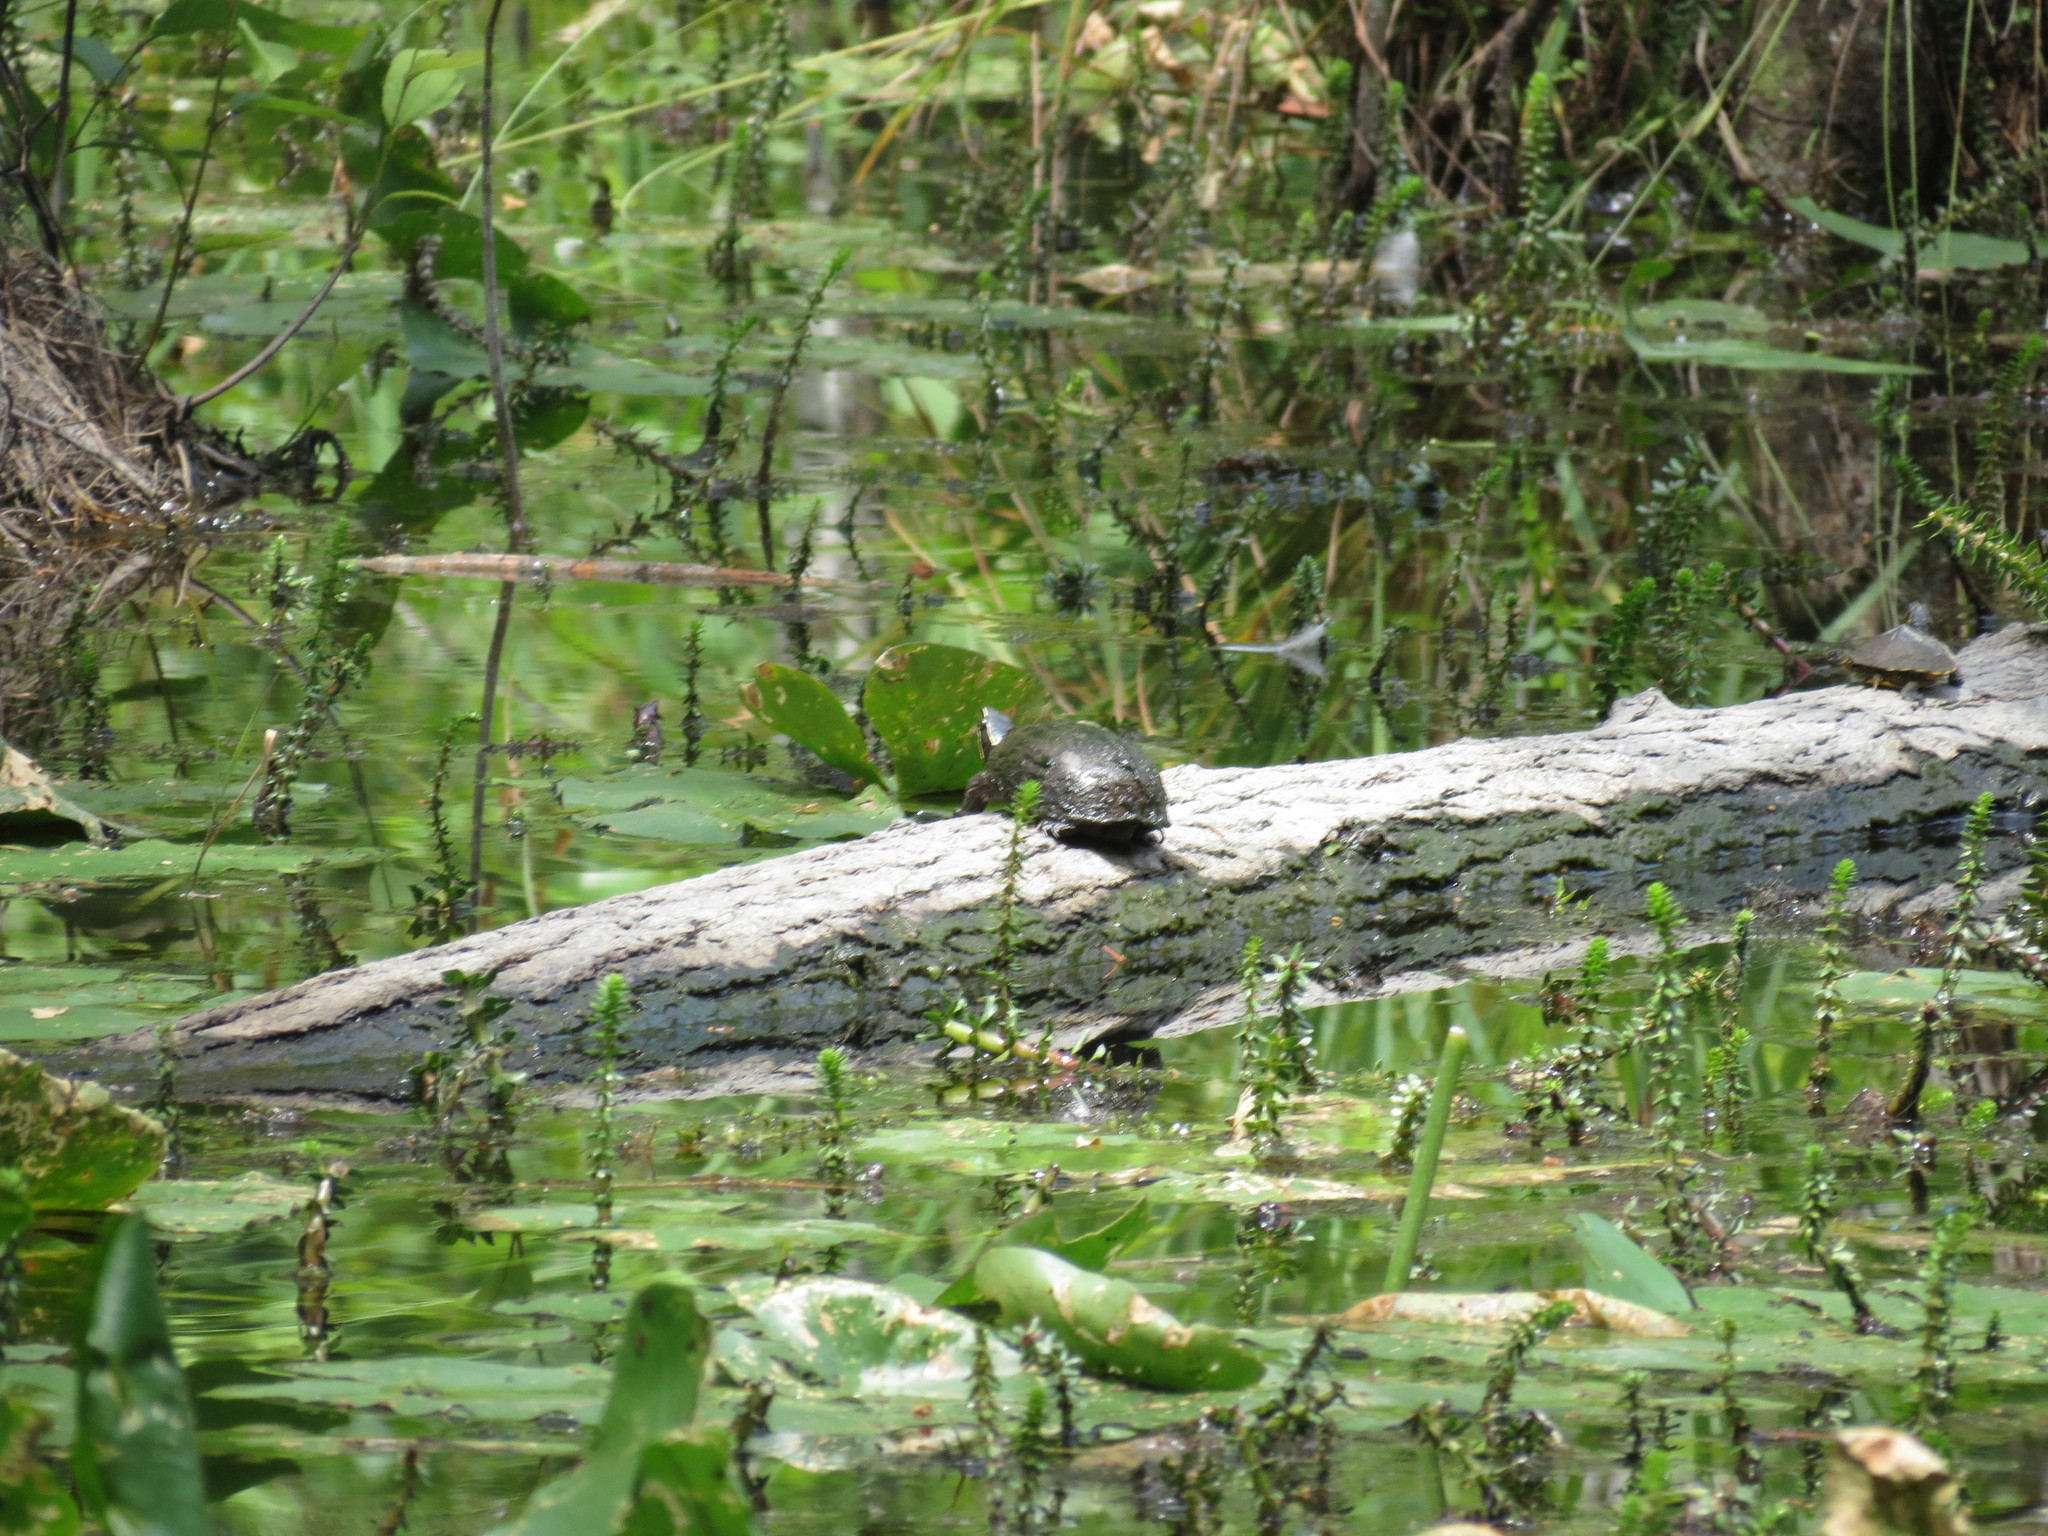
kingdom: Animalia
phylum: Chordata
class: Testudines
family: Kinosternidae
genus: Sternotherus
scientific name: Sternotherus odoratus
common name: Common musk turtle
